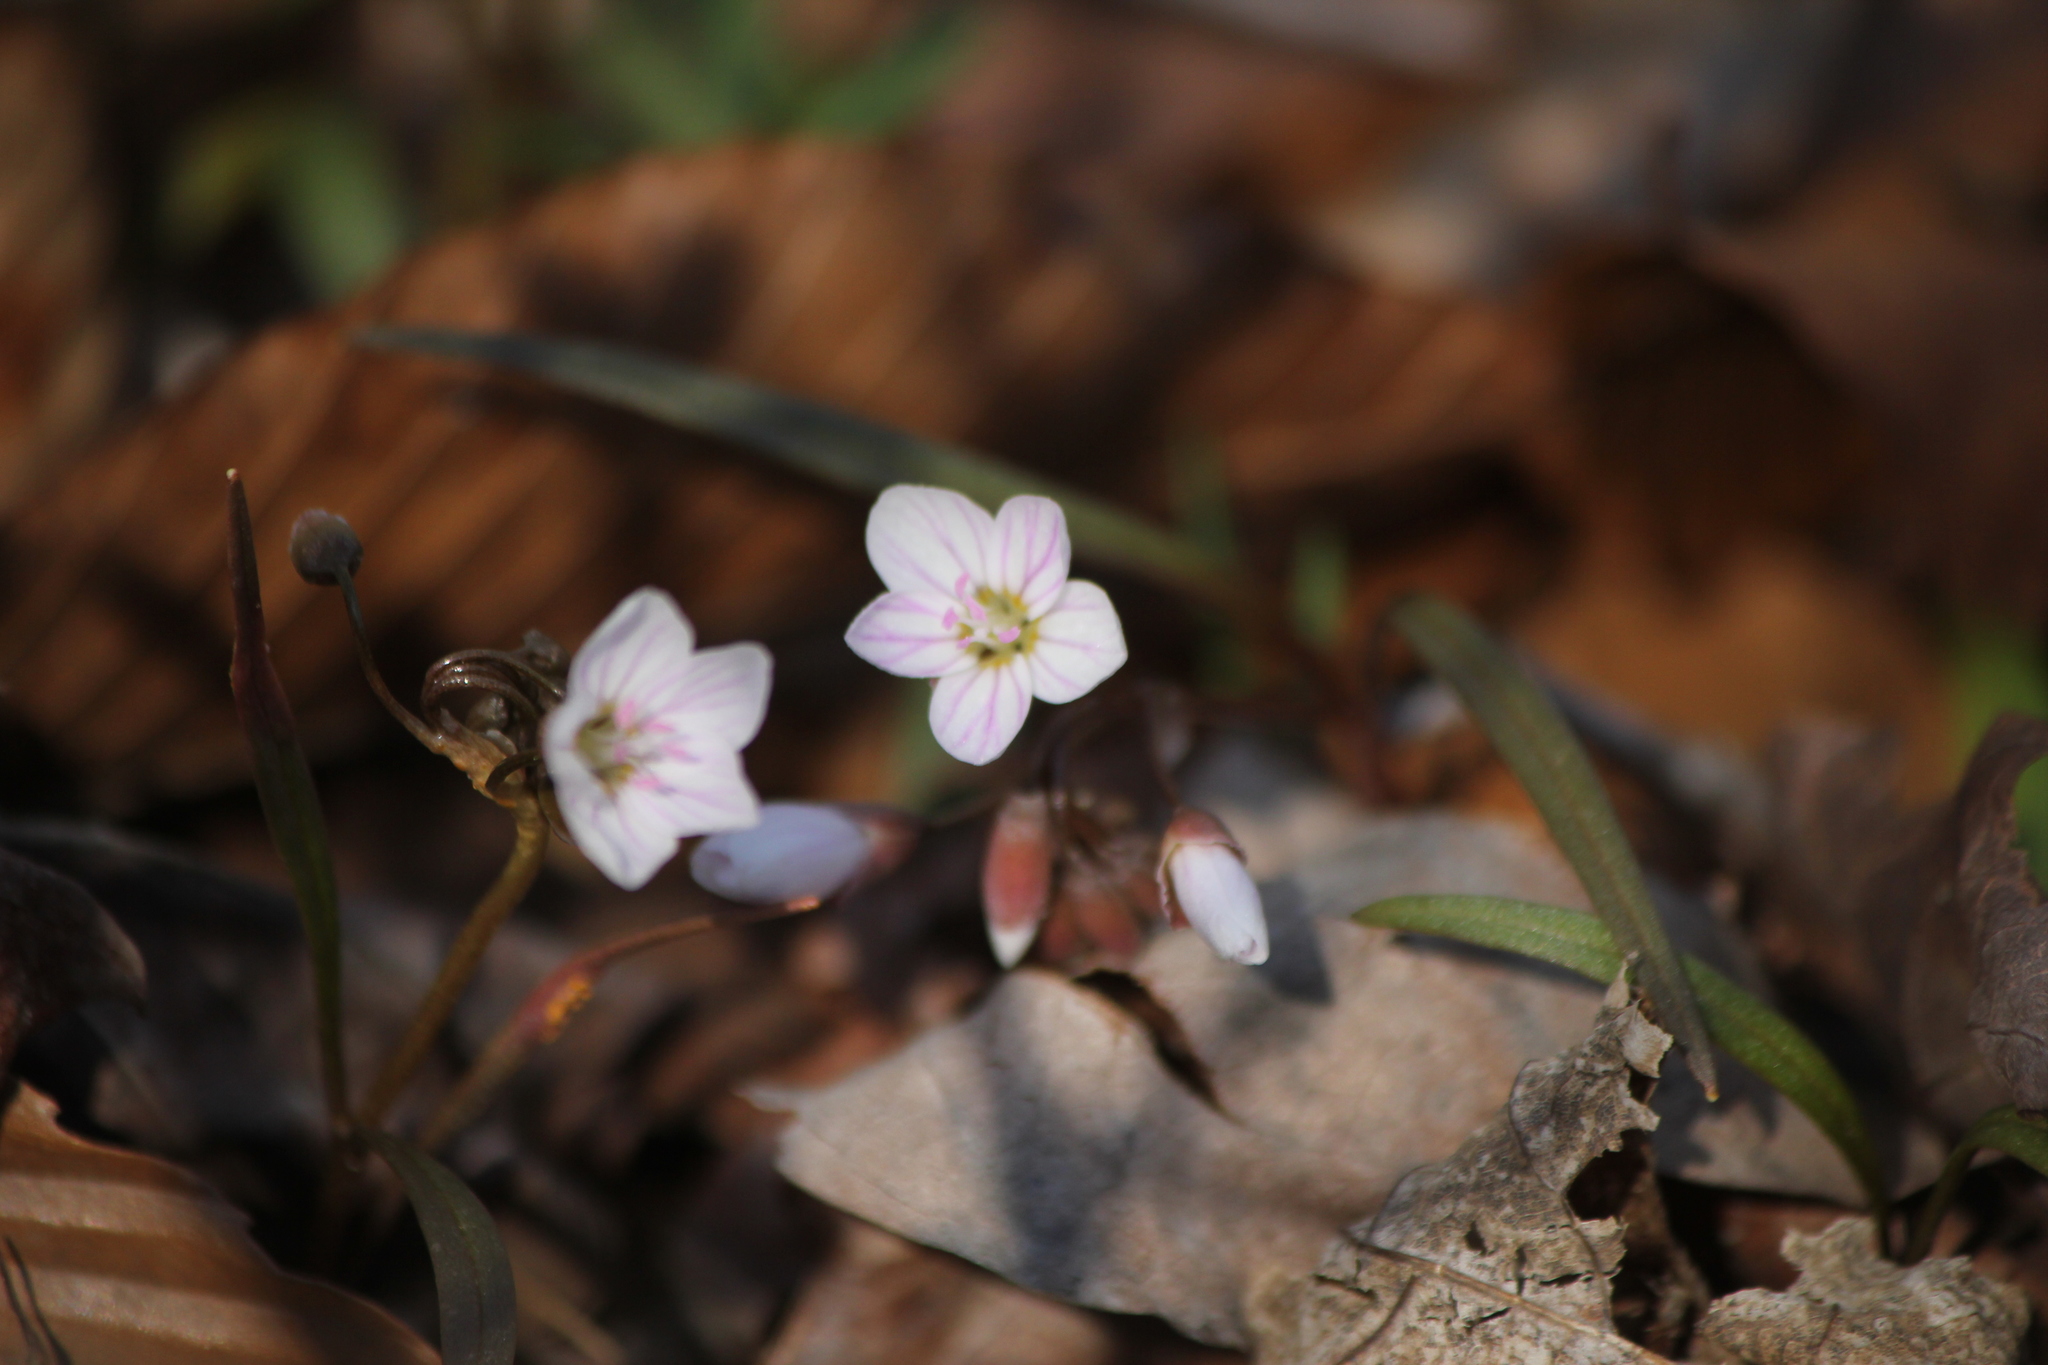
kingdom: Plantae
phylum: Tracheophyta
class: Magnoliopsida
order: Caryophyllales
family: Montiaceae
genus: Claytonia
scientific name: Claytonia virginica
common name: Virginia springbeauty
